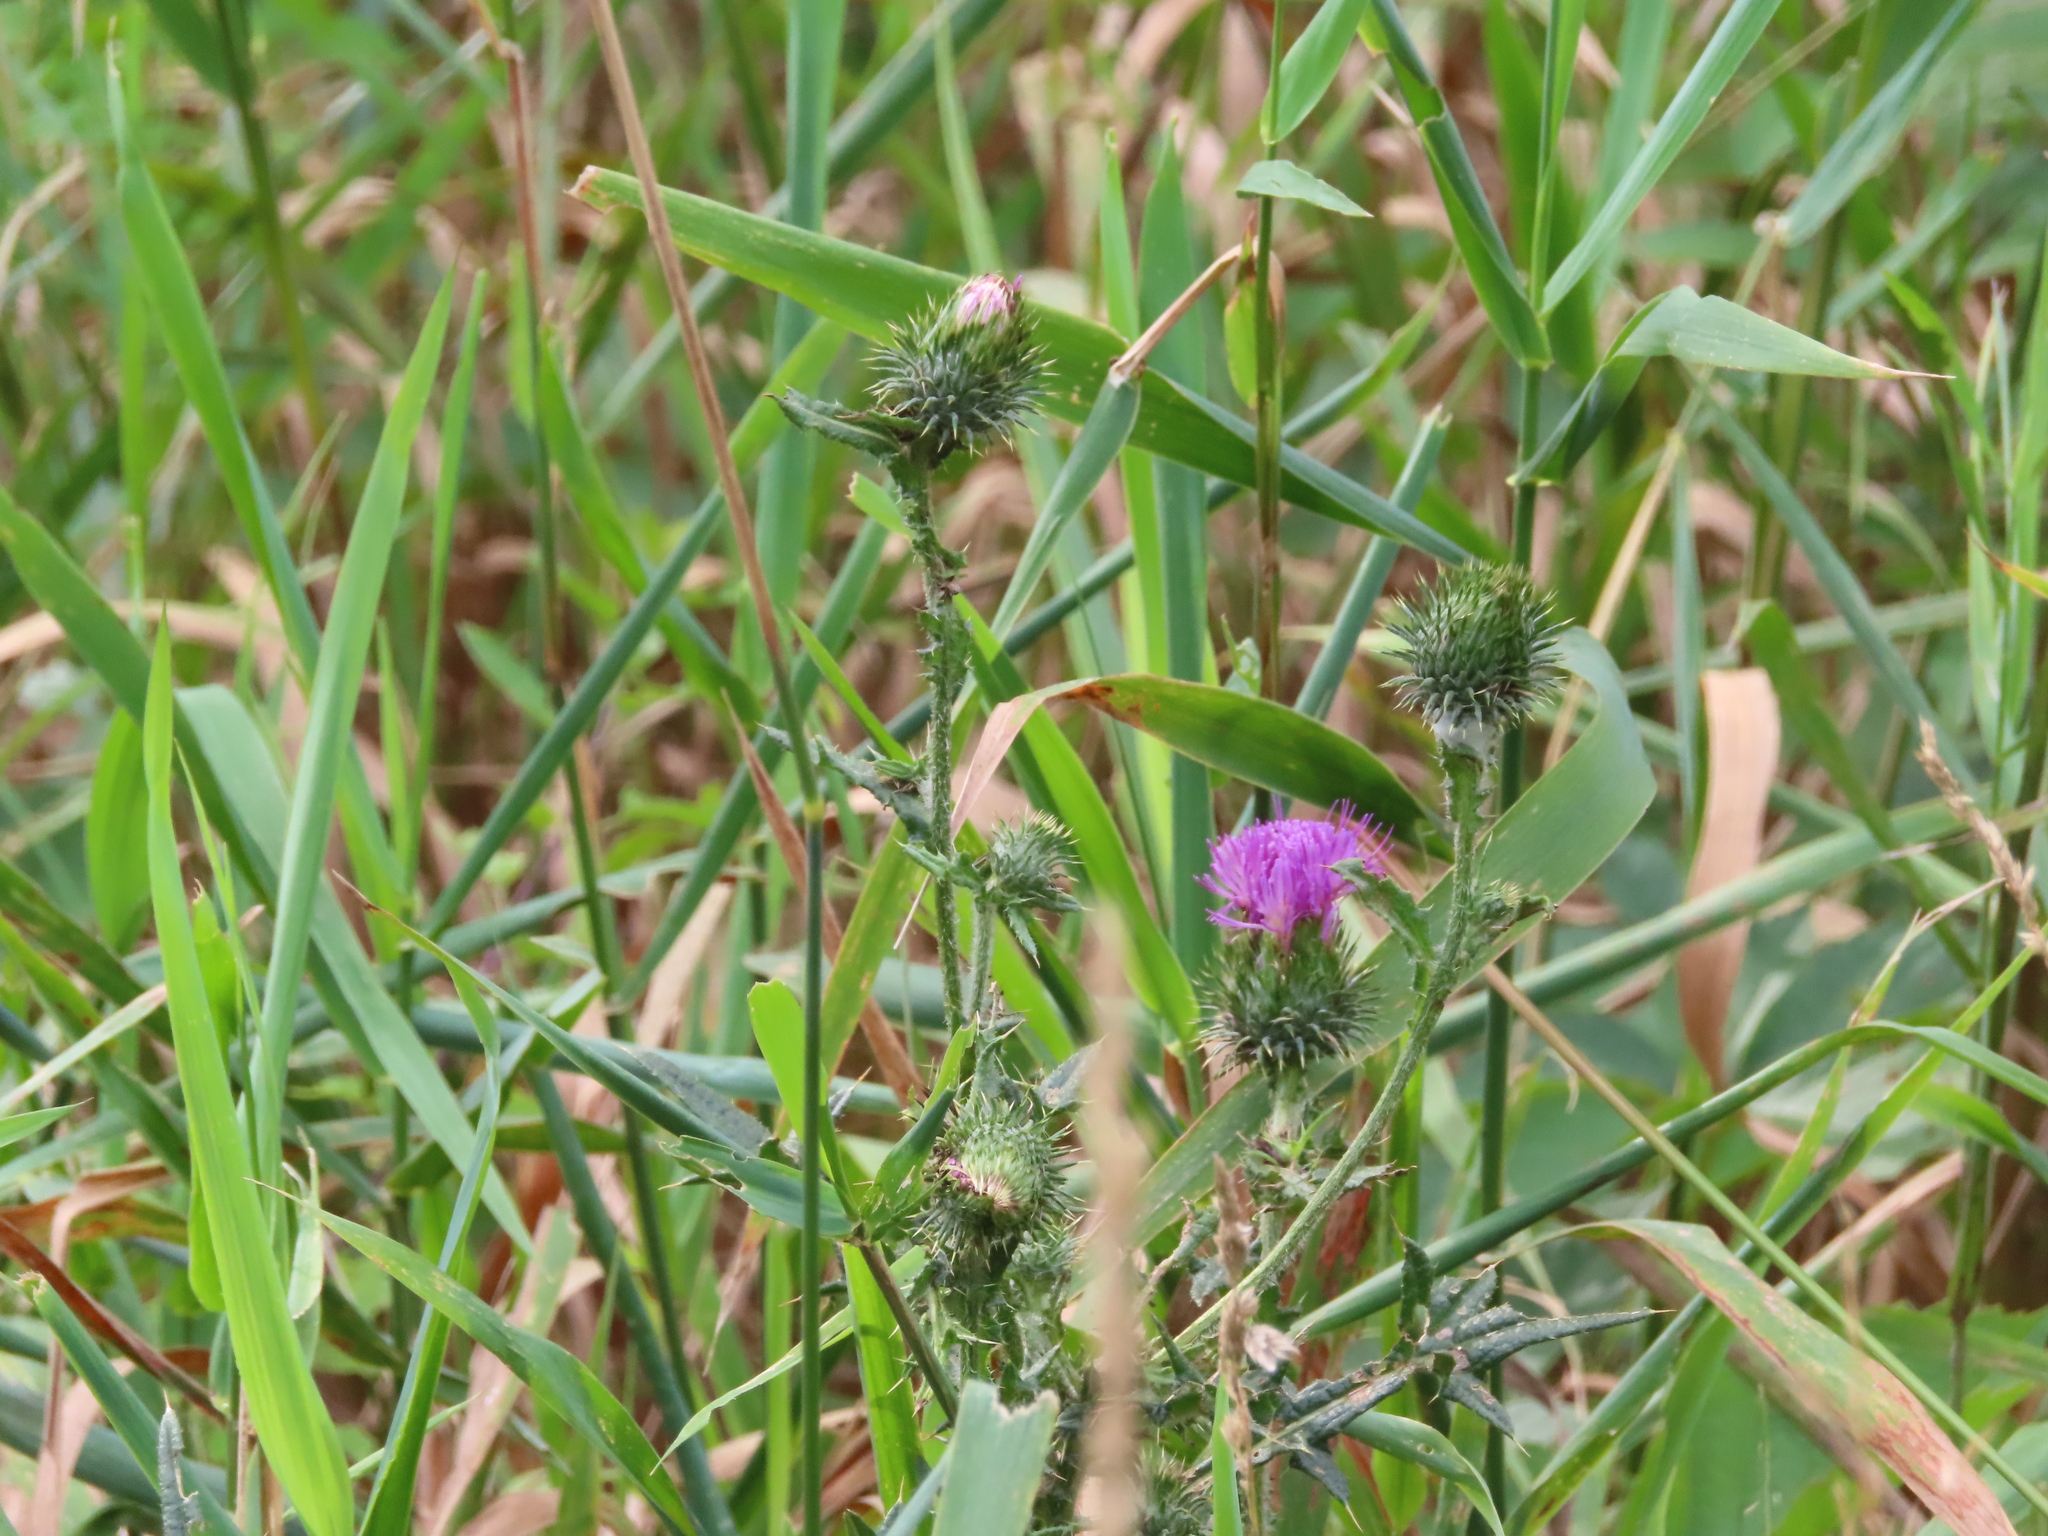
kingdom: Plantae
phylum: Tracheophyta
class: Magnoliopsida
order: Asterales
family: Asteraceae
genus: Cirsium
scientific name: Cirsium vulgare
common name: Bull thistle
